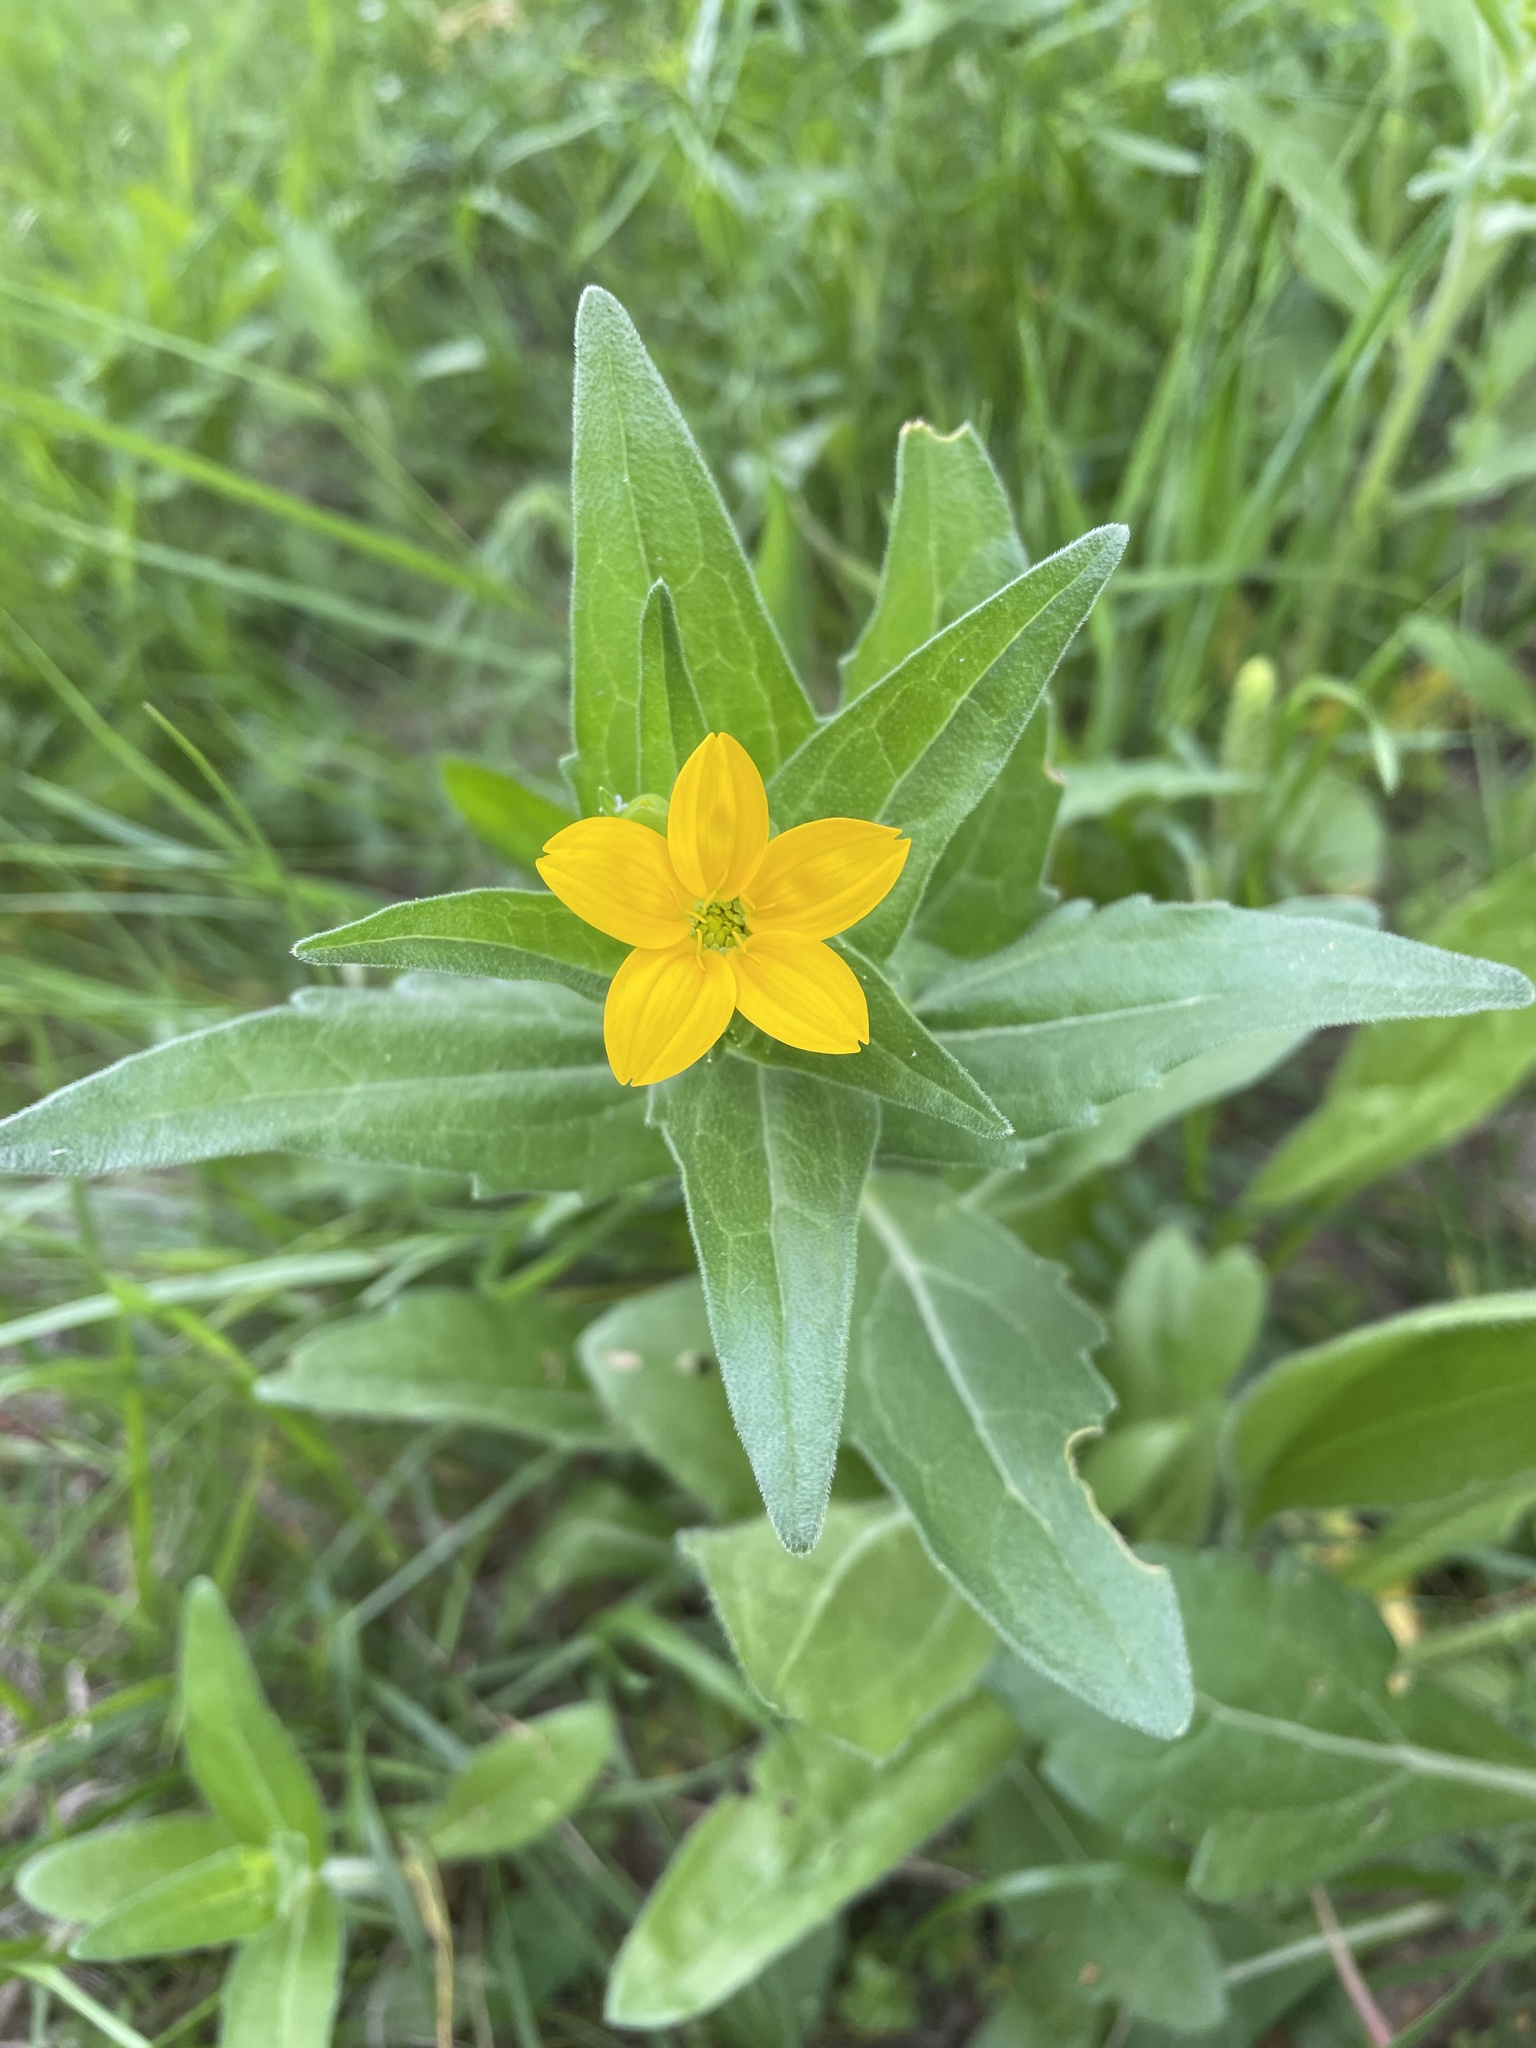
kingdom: Plantae
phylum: Tracheophyta
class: Magnoliopsida
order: Asterales
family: Asteraceae
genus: Lindheimera
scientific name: Lindheimera texana
